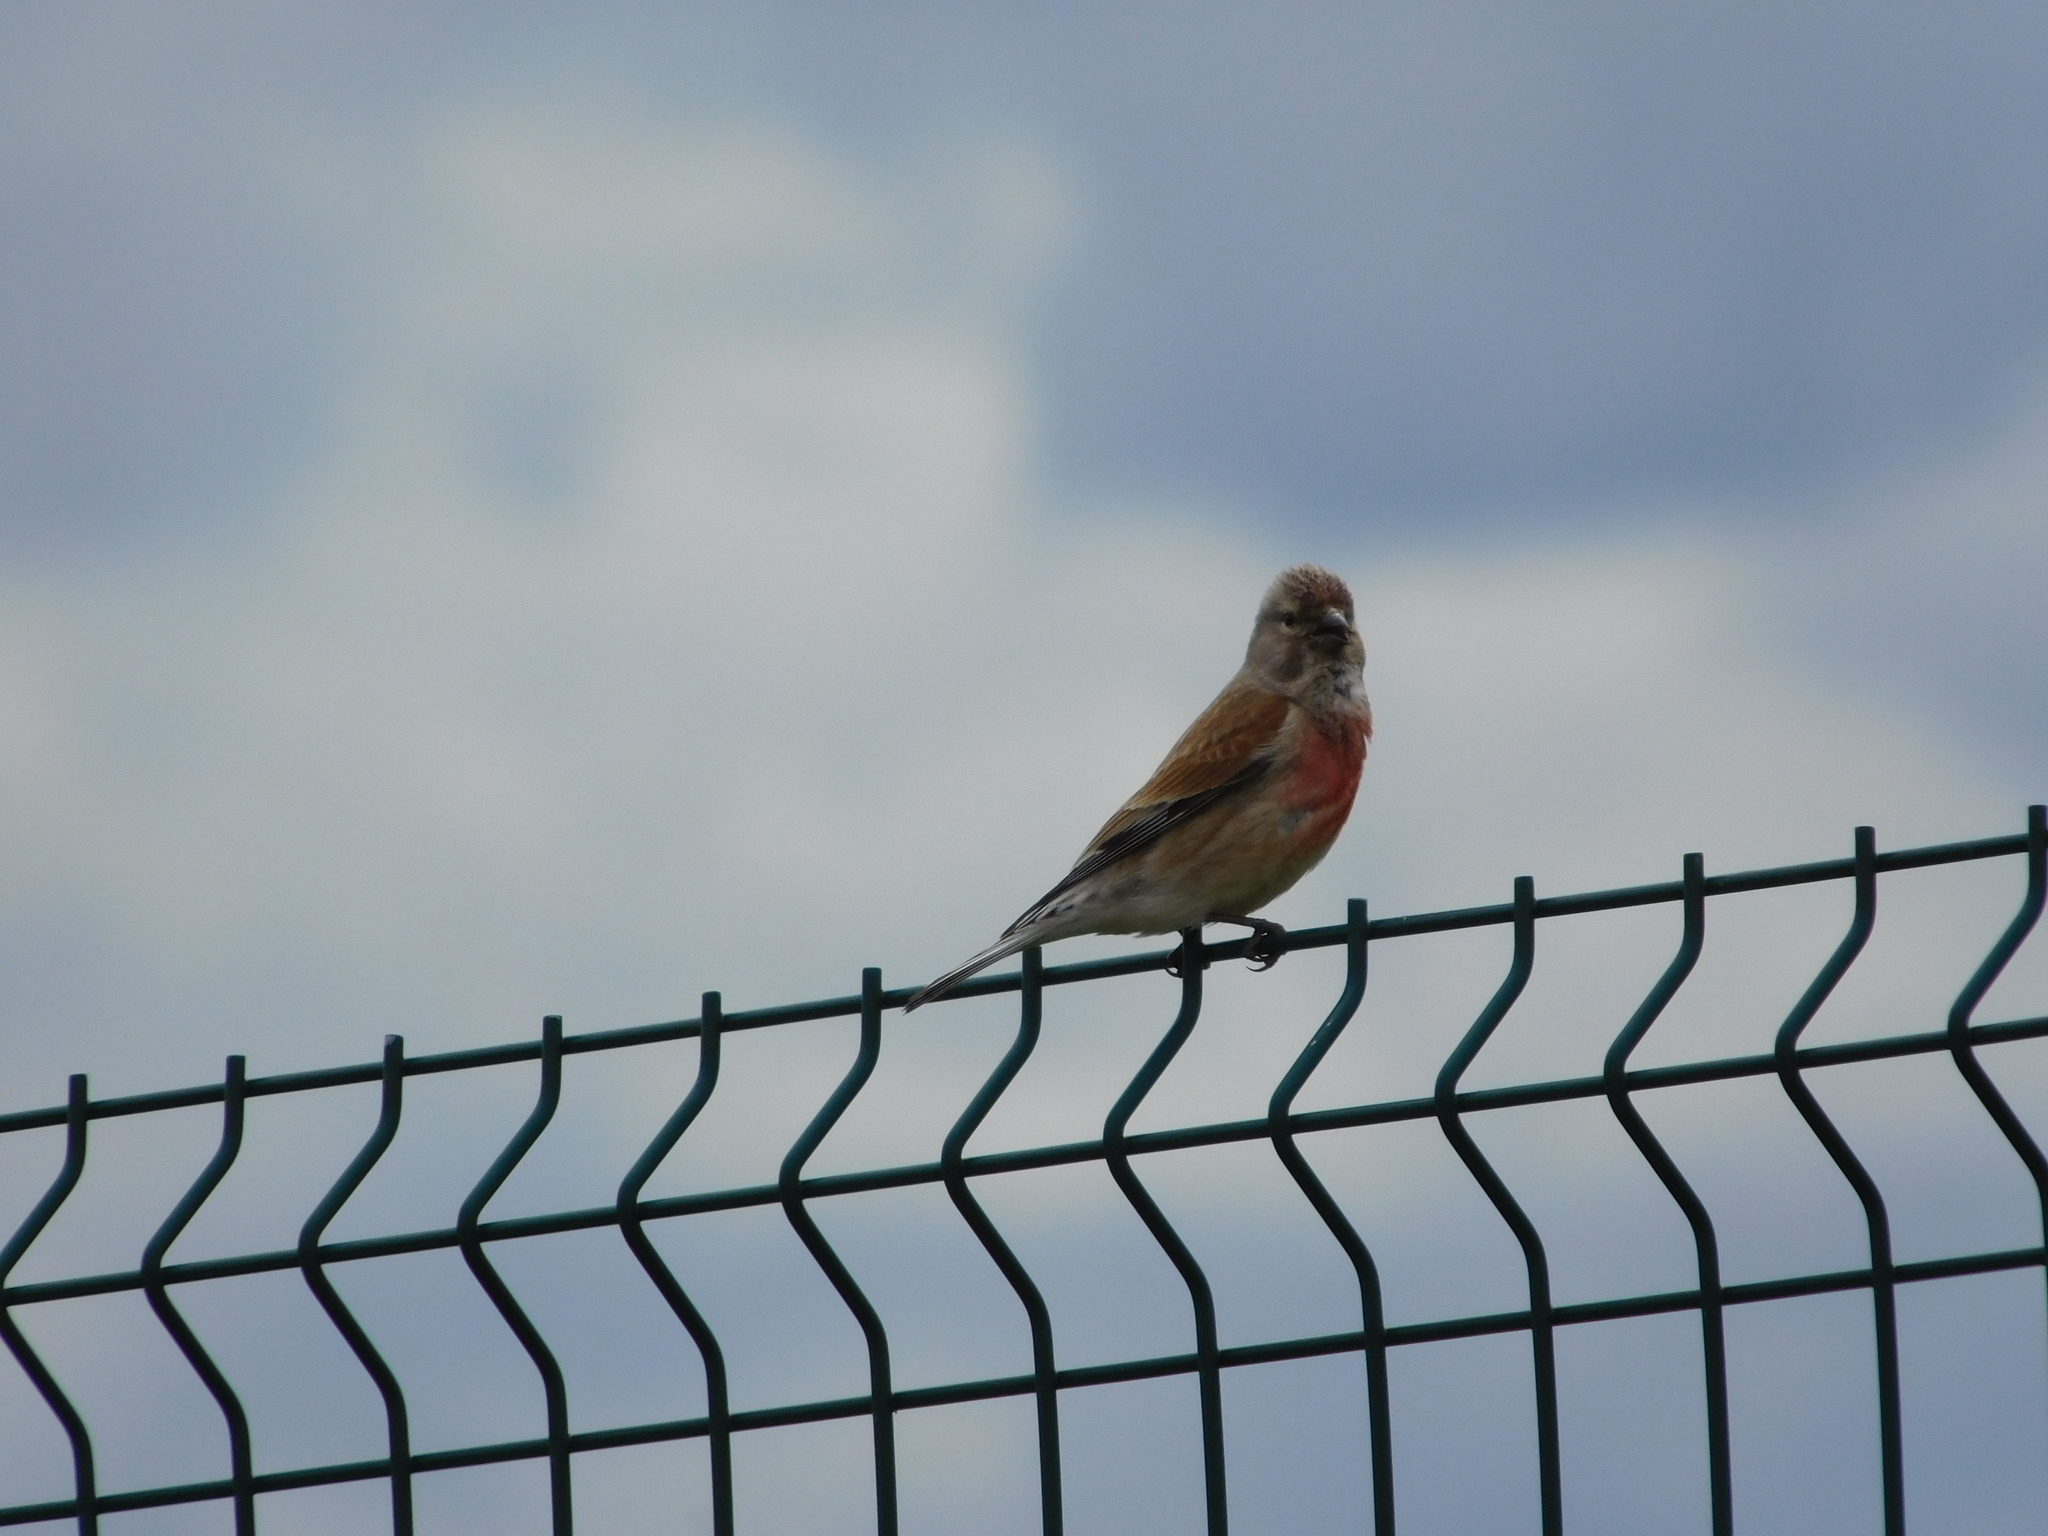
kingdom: Animalia
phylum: Chordata
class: Aves
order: Passeriformes
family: Fringillidae
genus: Linaria
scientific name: Linaria cannabina
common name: Common linnet
